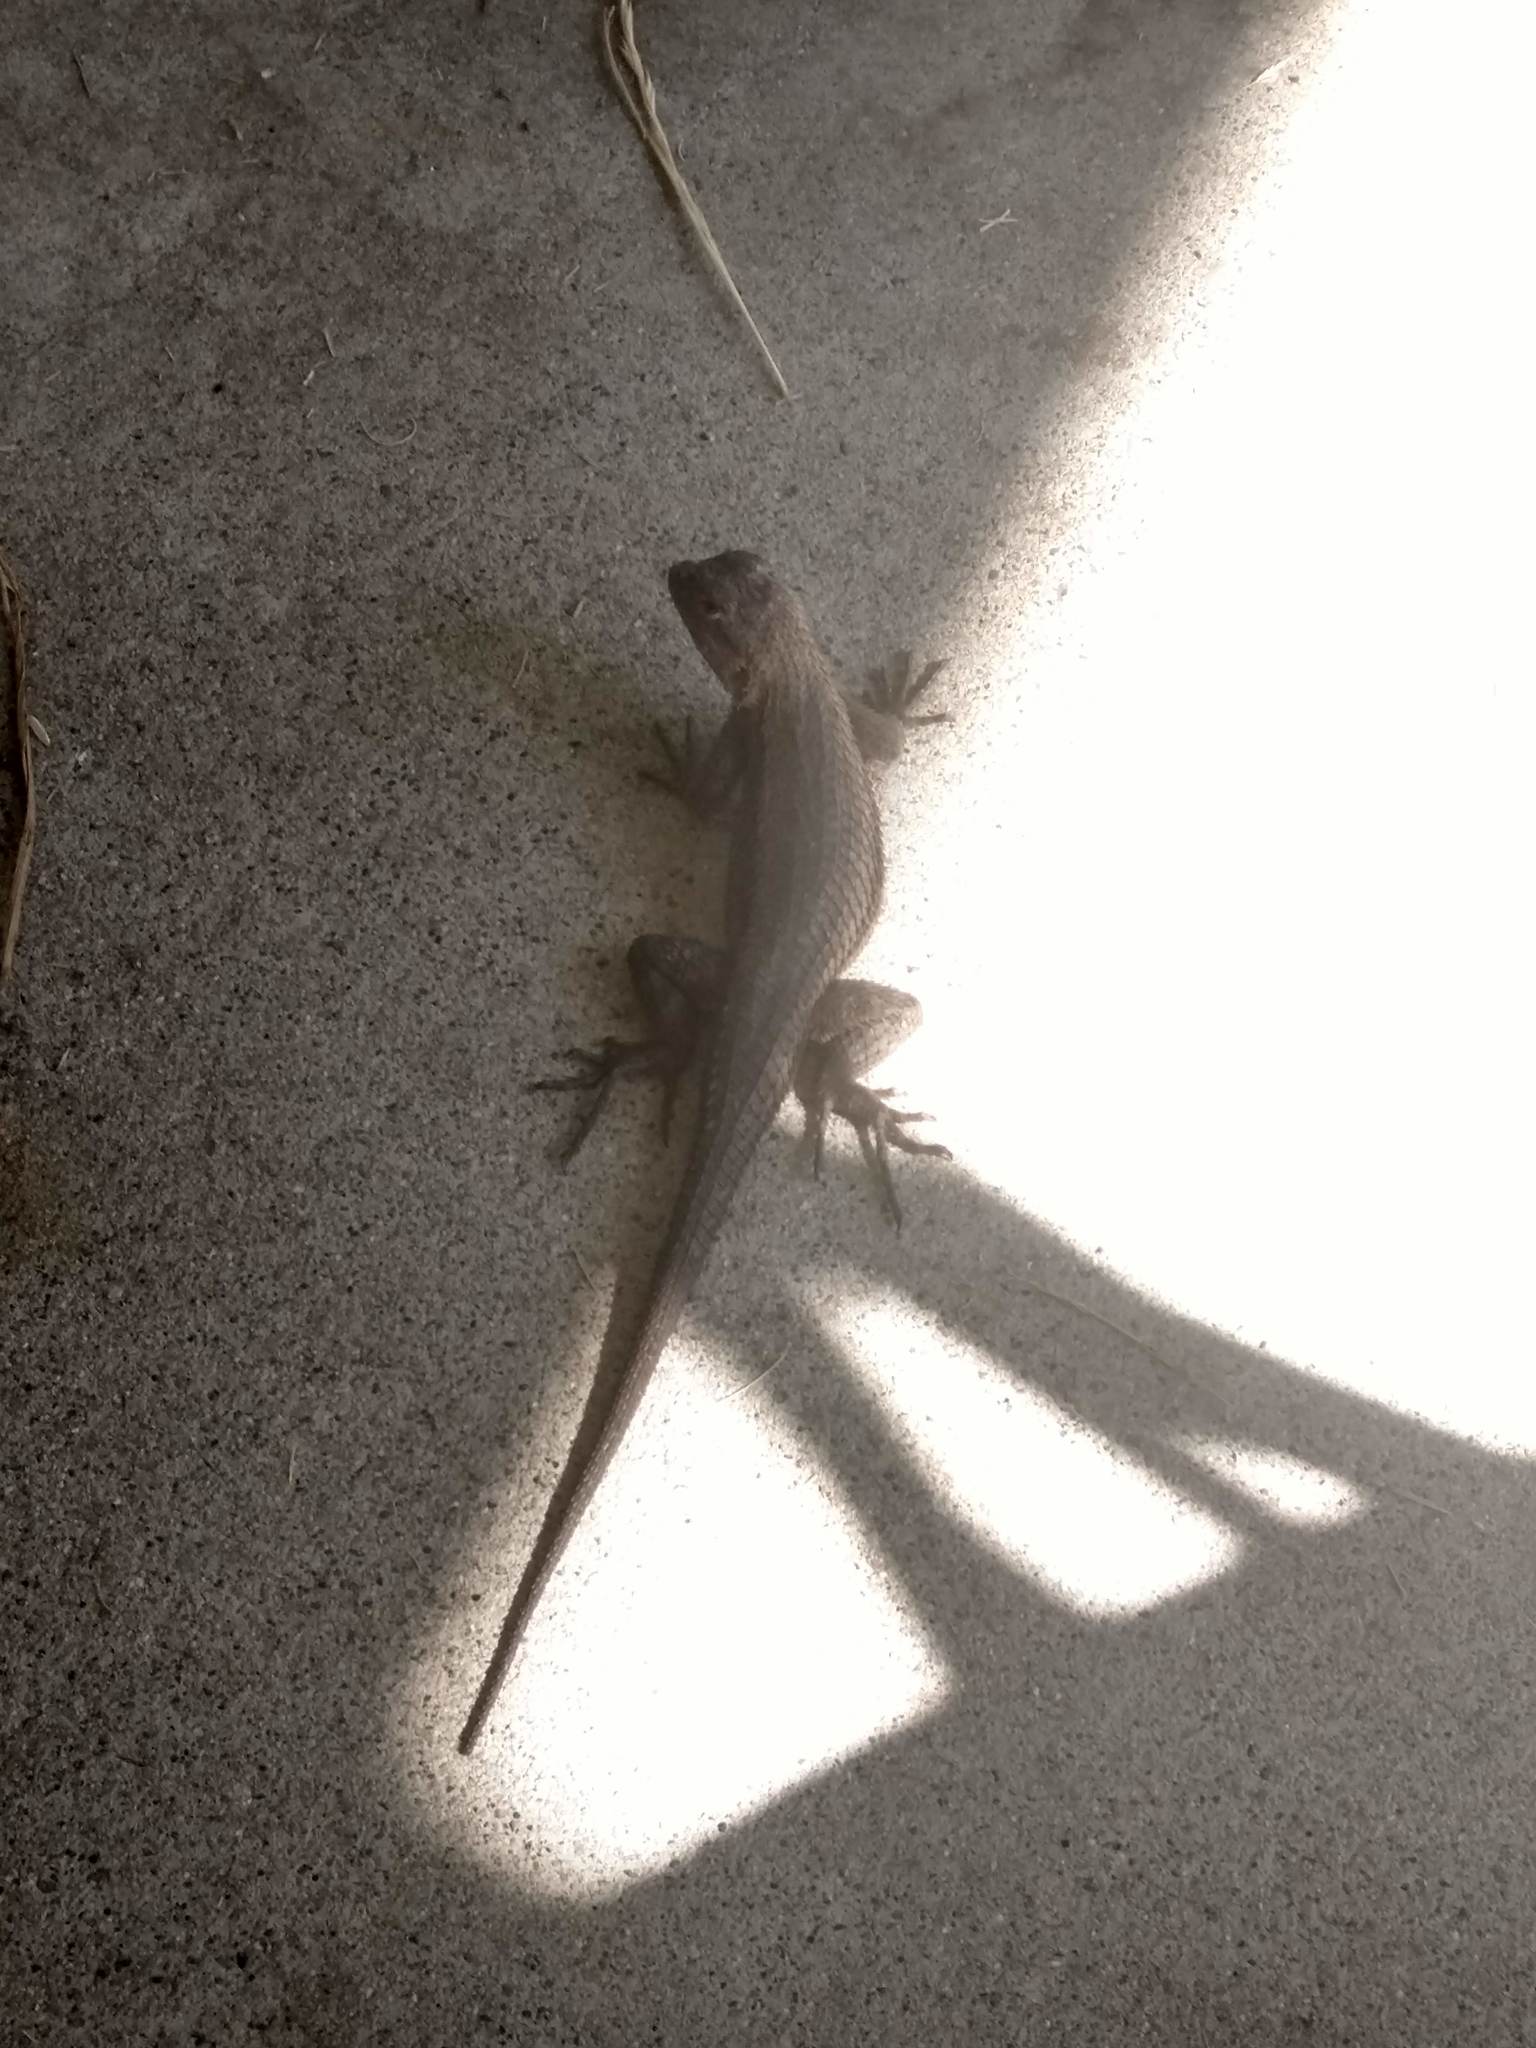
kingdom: Animalia
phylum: Chordata
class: Squamata
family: Phrynosomatidae
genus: Sceloporus
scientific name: Sceloporus occidentalis
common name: Western fence lizard
